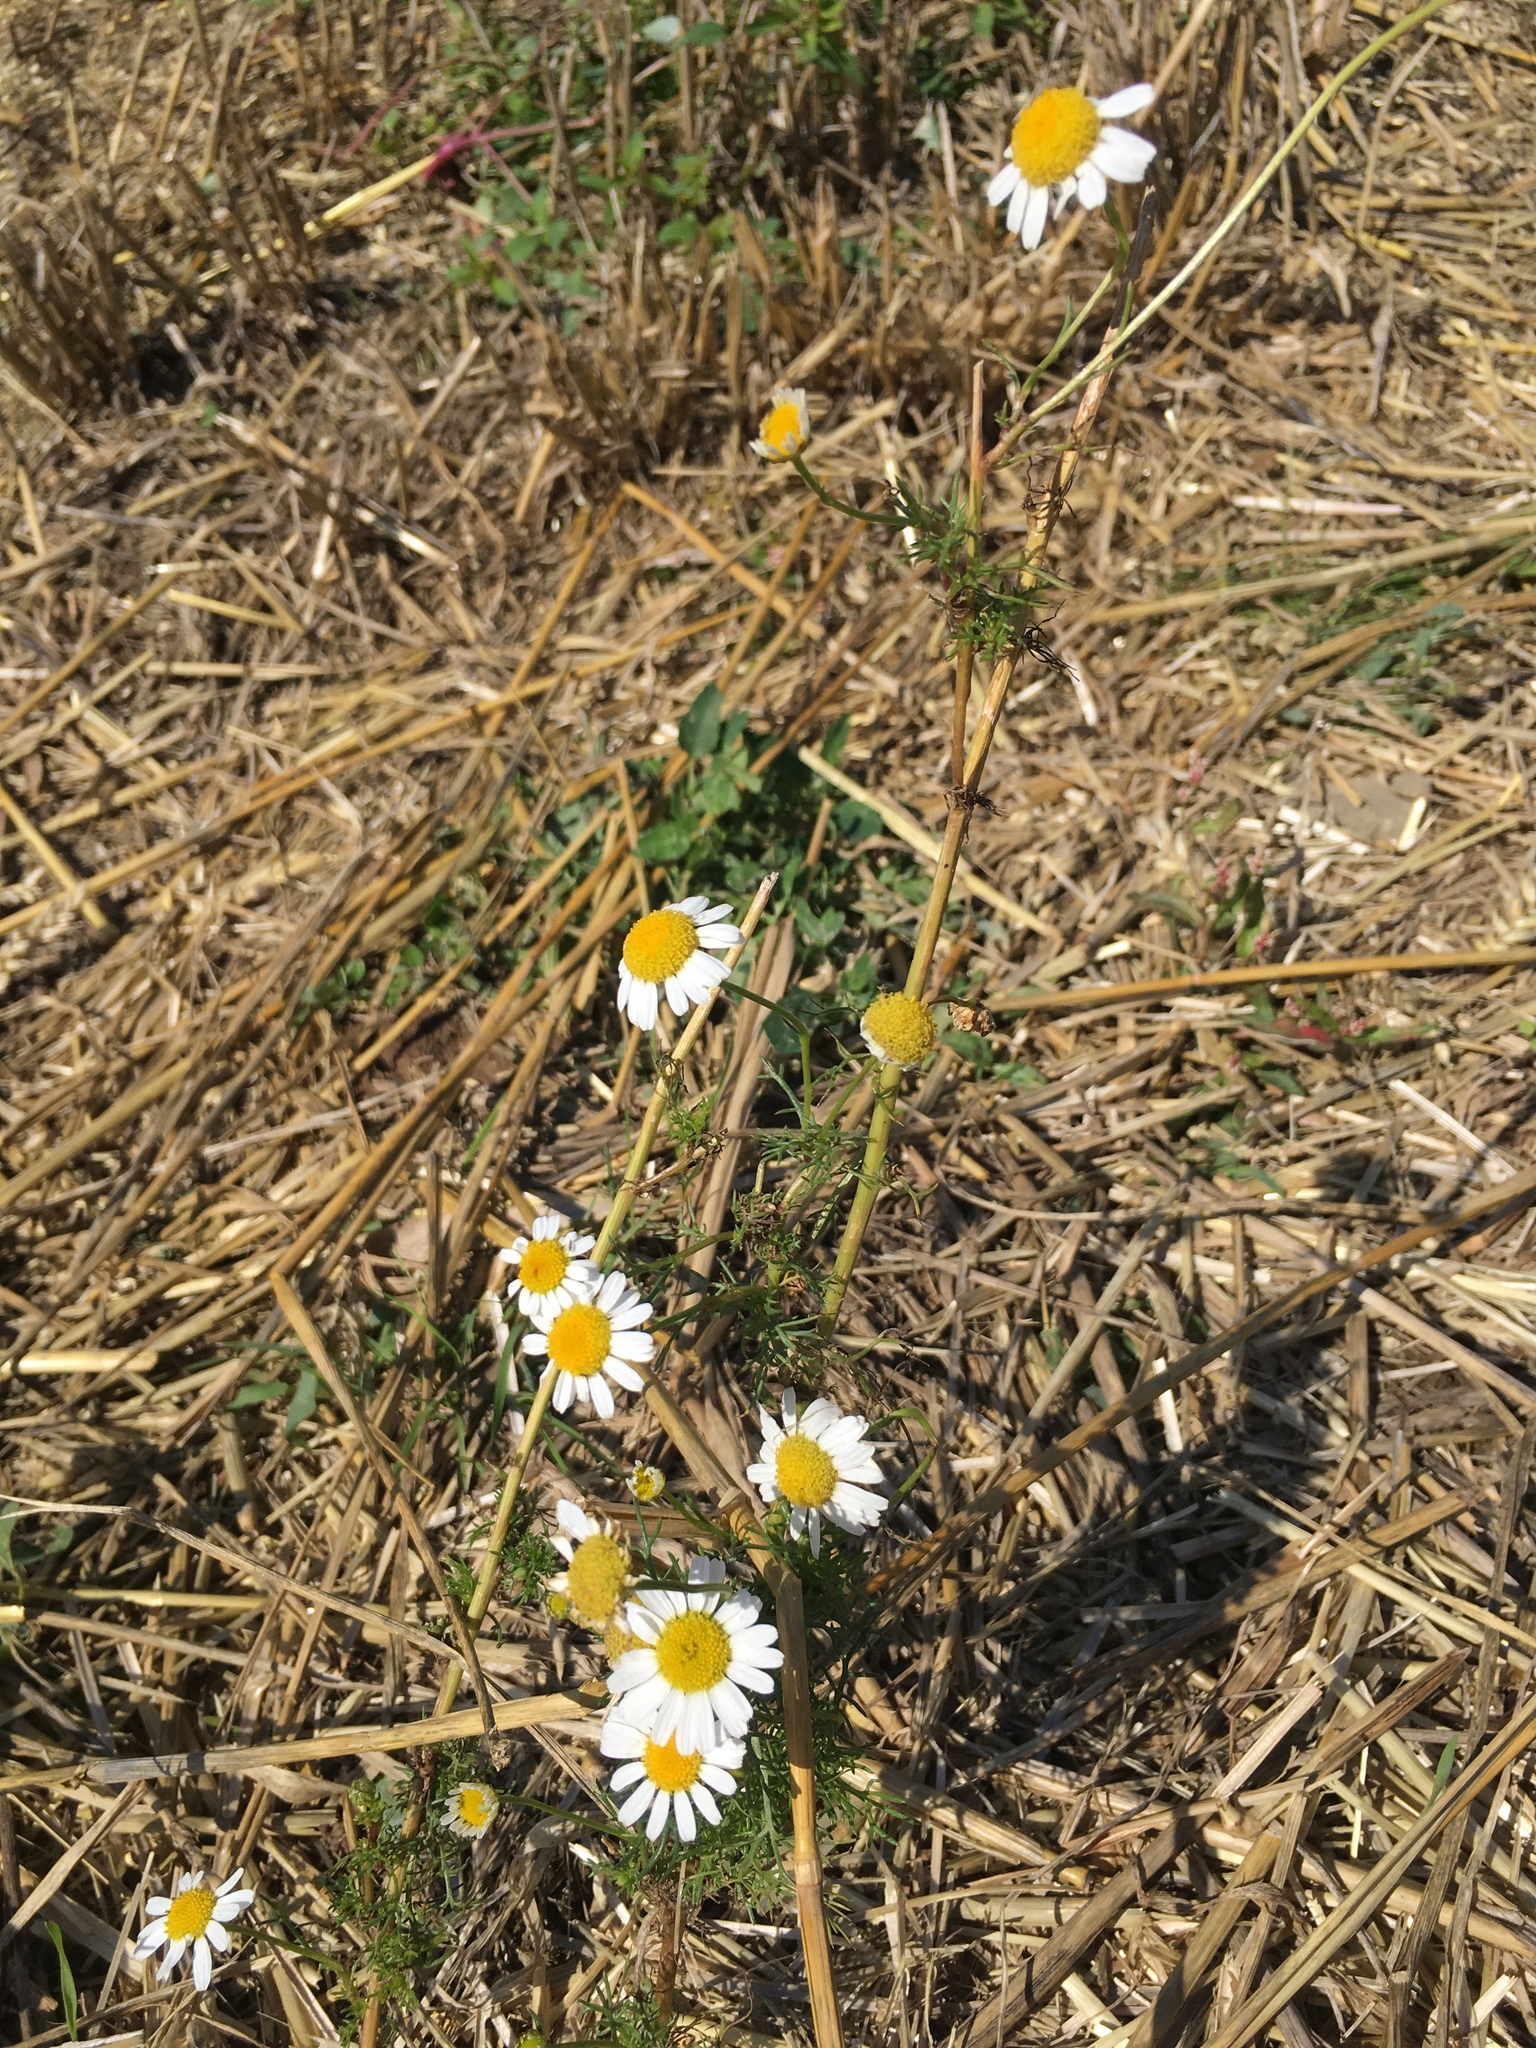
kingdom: Plantae
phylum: Tracheophyta
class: Magnoliopsida
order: Asterales
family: Asteraceae
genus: Matricaria
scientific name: Matricaria chamomilla
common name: Scented mayweed
